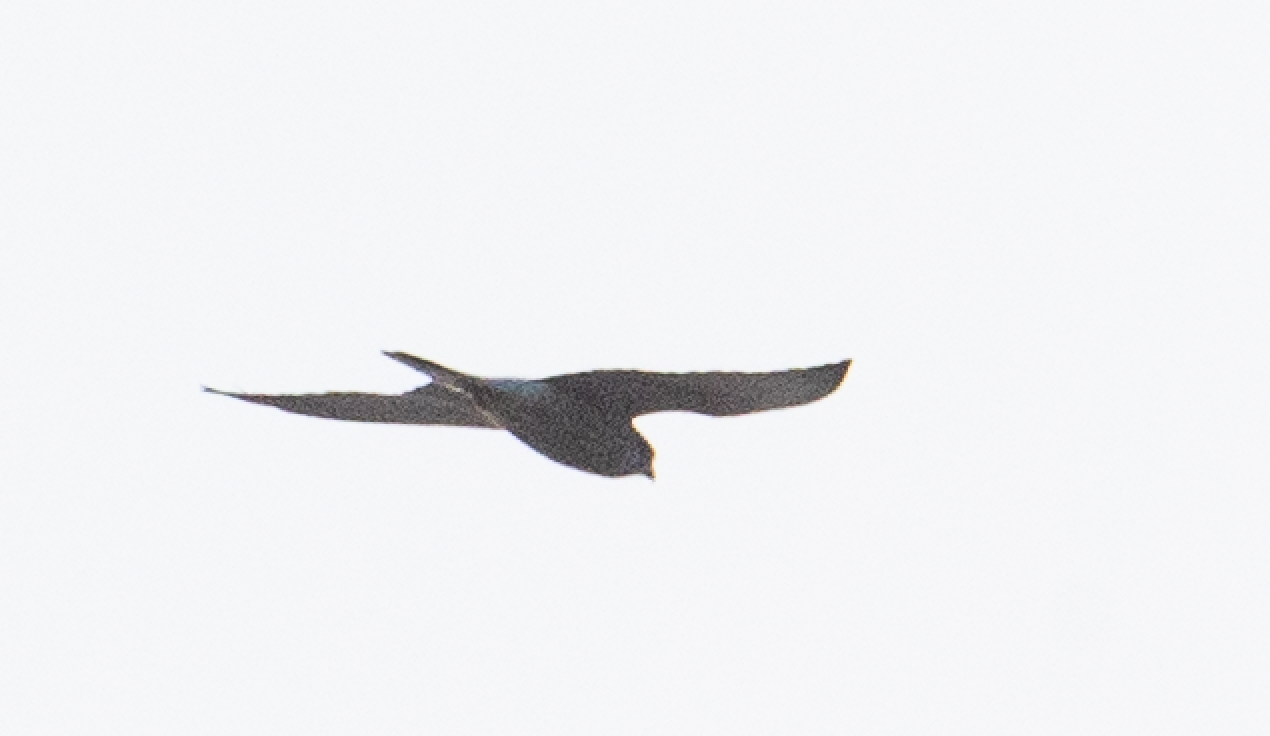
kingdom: Animalia
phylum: Chordata
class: Aves
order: Falconiformes
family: Falconidae
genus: Falco
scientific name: Falco tinnunculus
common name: Common kestrel
